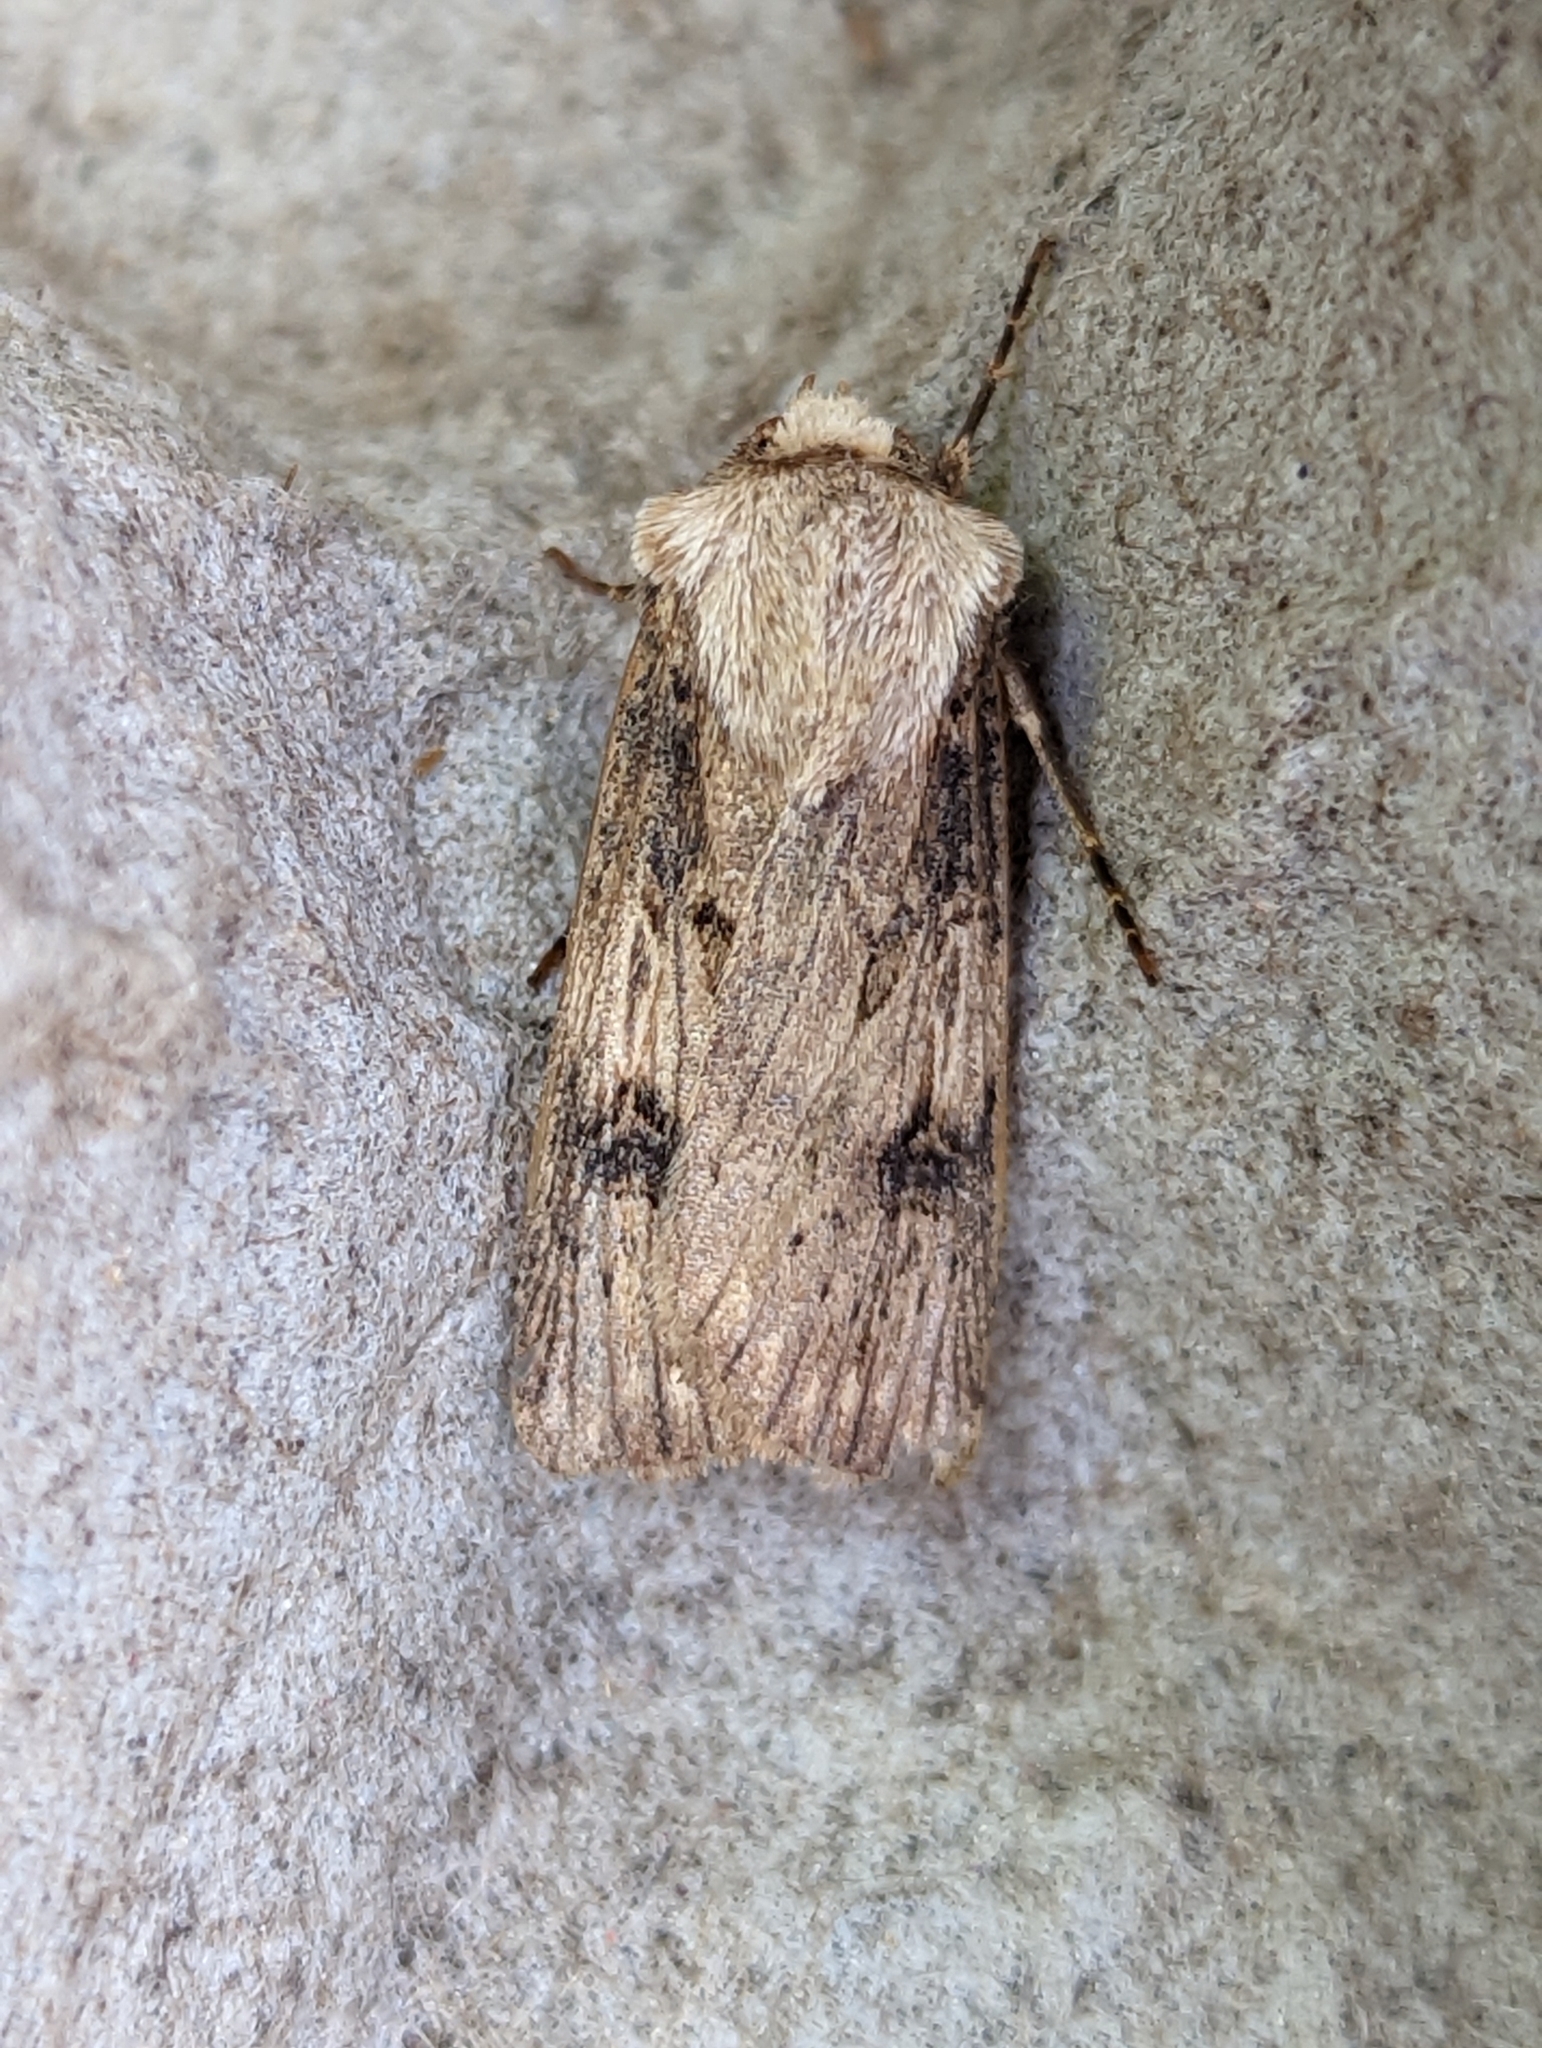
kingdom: Animalia
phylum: Arthropoda
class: Insecta
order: Lepidoptera
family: Noctuidae
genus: Agrotis
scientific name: Agrotis puta
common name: Shuttle-shaped dart
